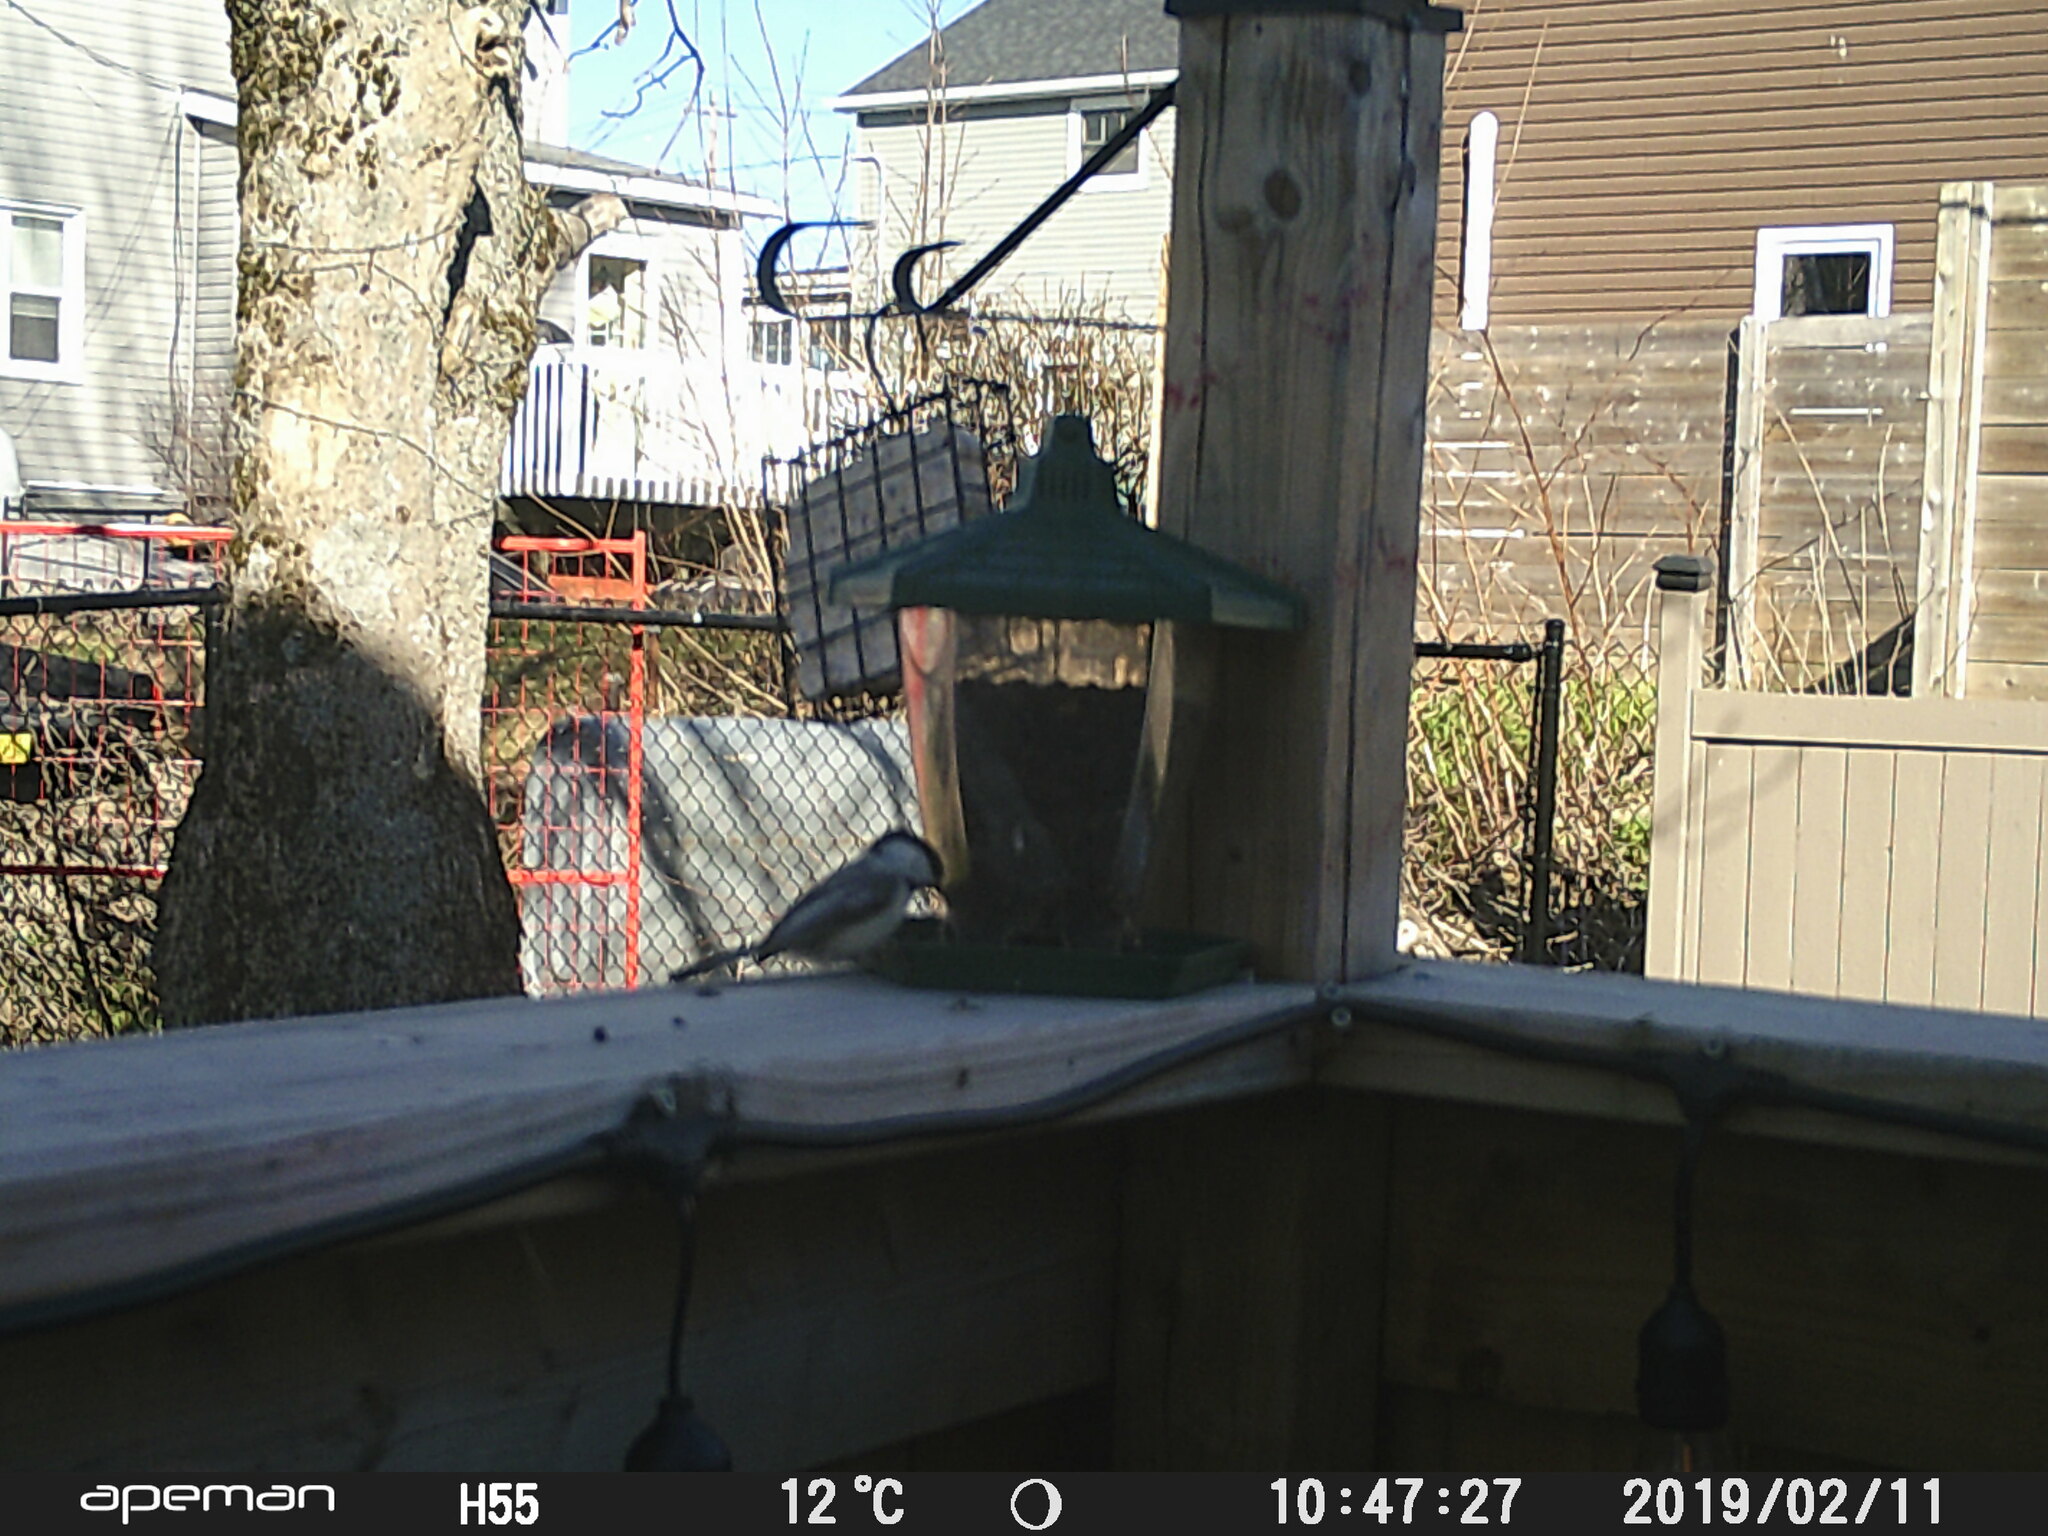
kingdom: Animalia
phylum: Chordata
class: Aves
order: Passeriformes
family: Paridae
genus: Poecile
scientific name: Poecile atricapillus
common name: Black-capped chickadee
